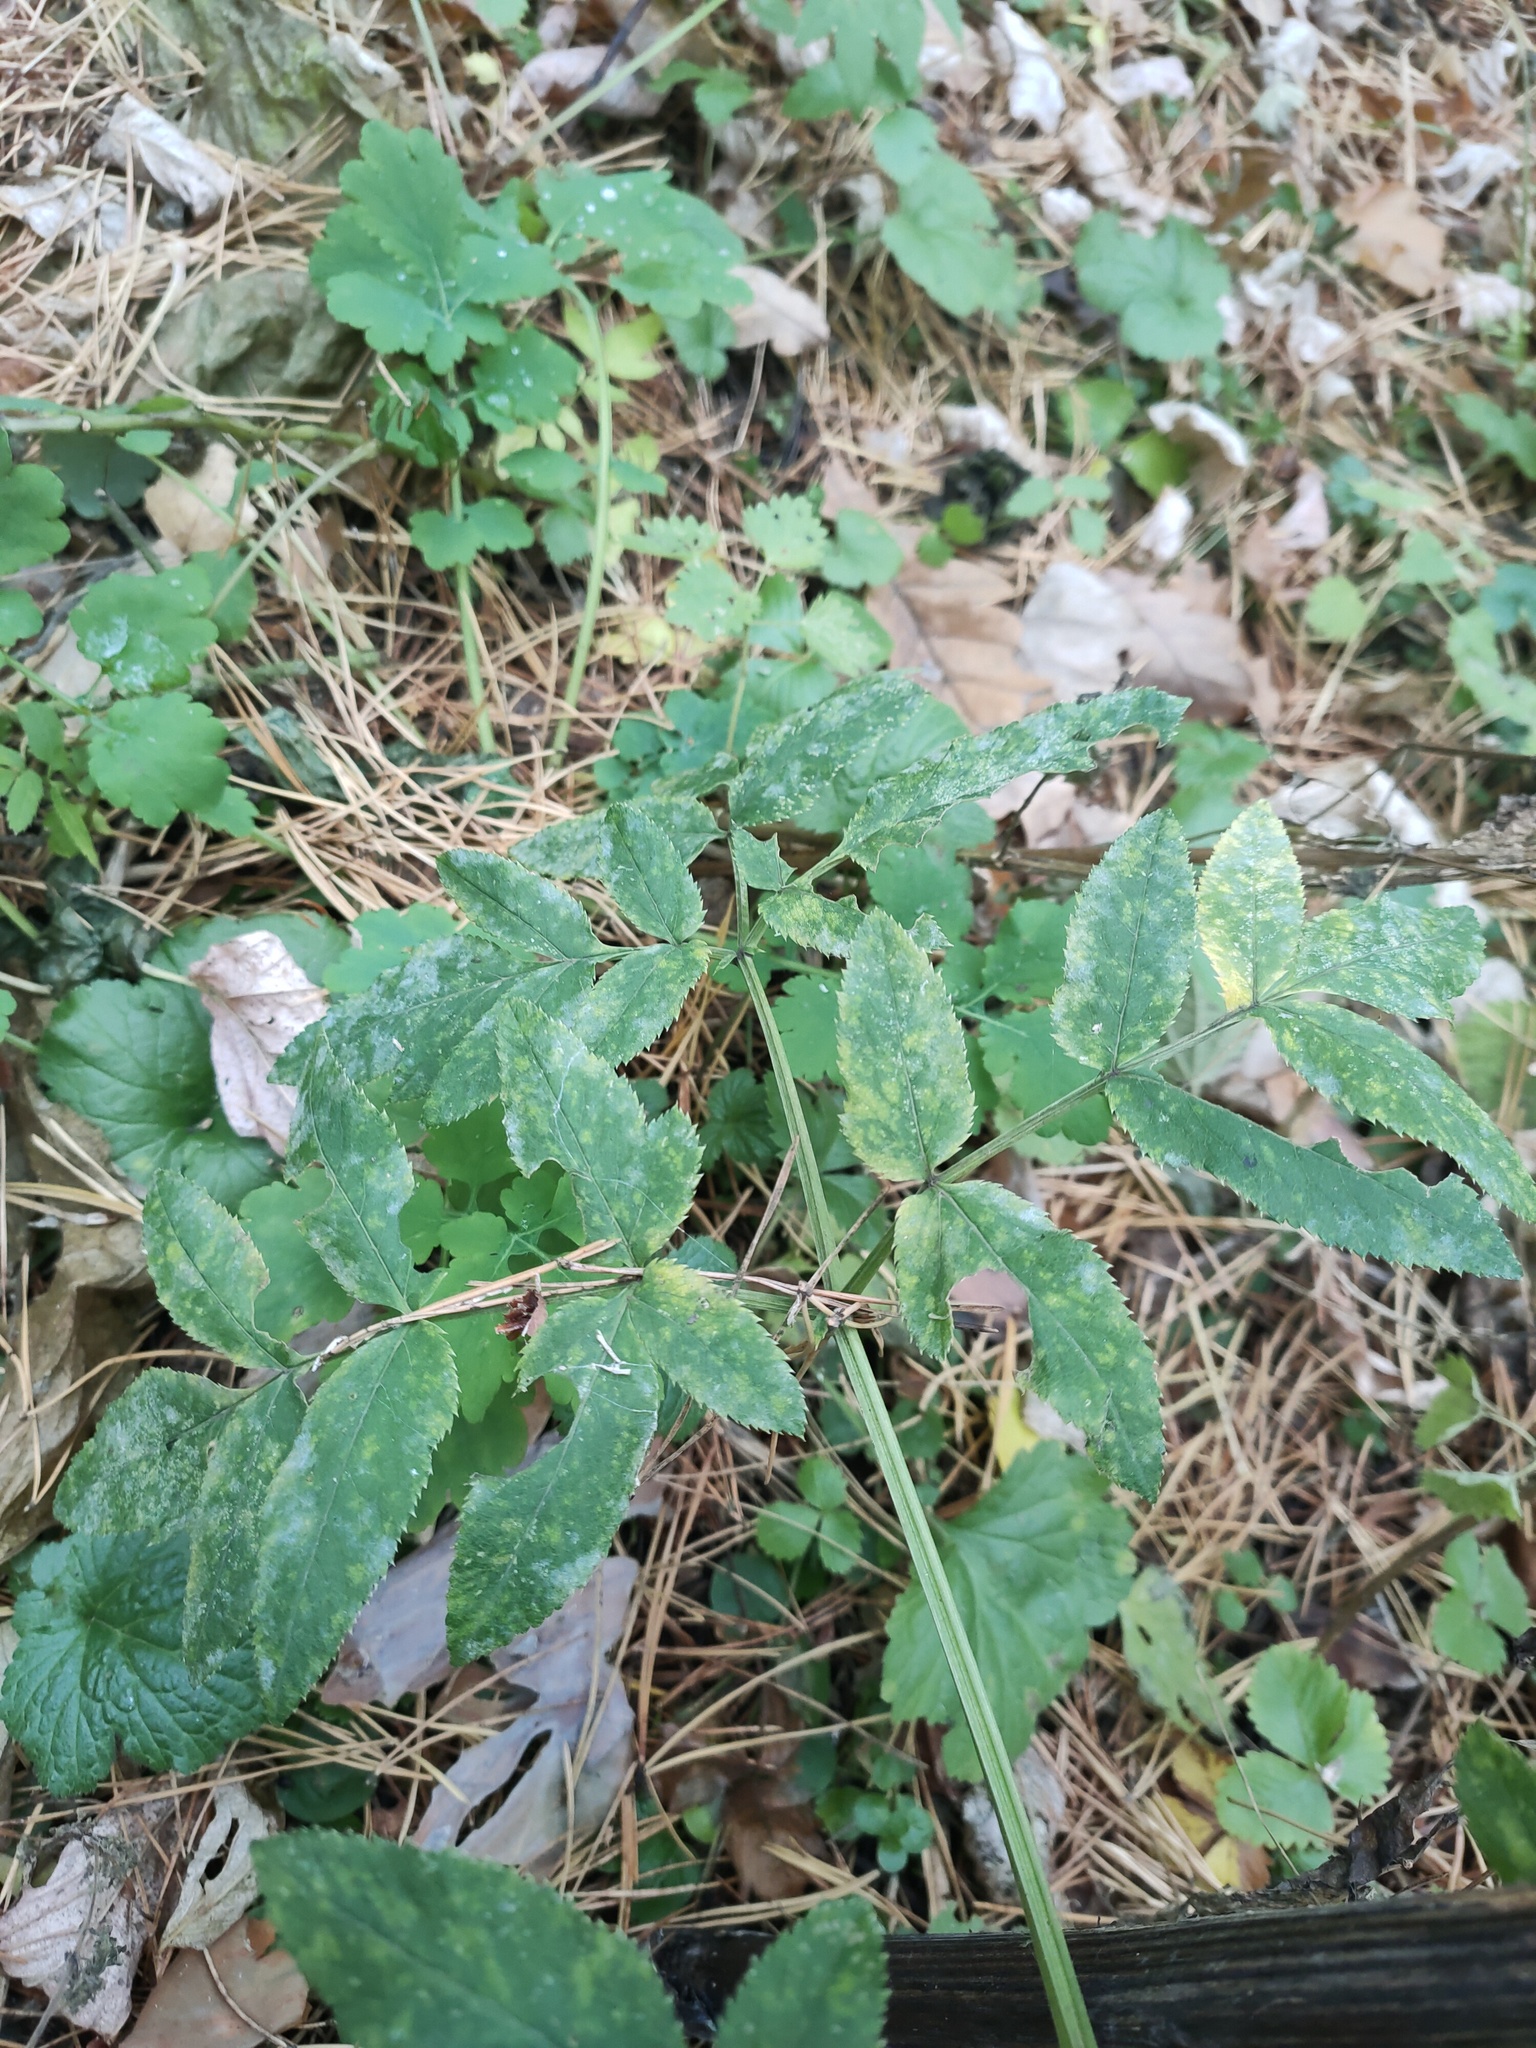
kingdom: Plantae
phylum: Tracheophyta
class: Magnoliopsida
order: Apiales
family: Apiaceae
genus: Angelica
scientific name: Angelica sylvestris
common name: Wild angelica
